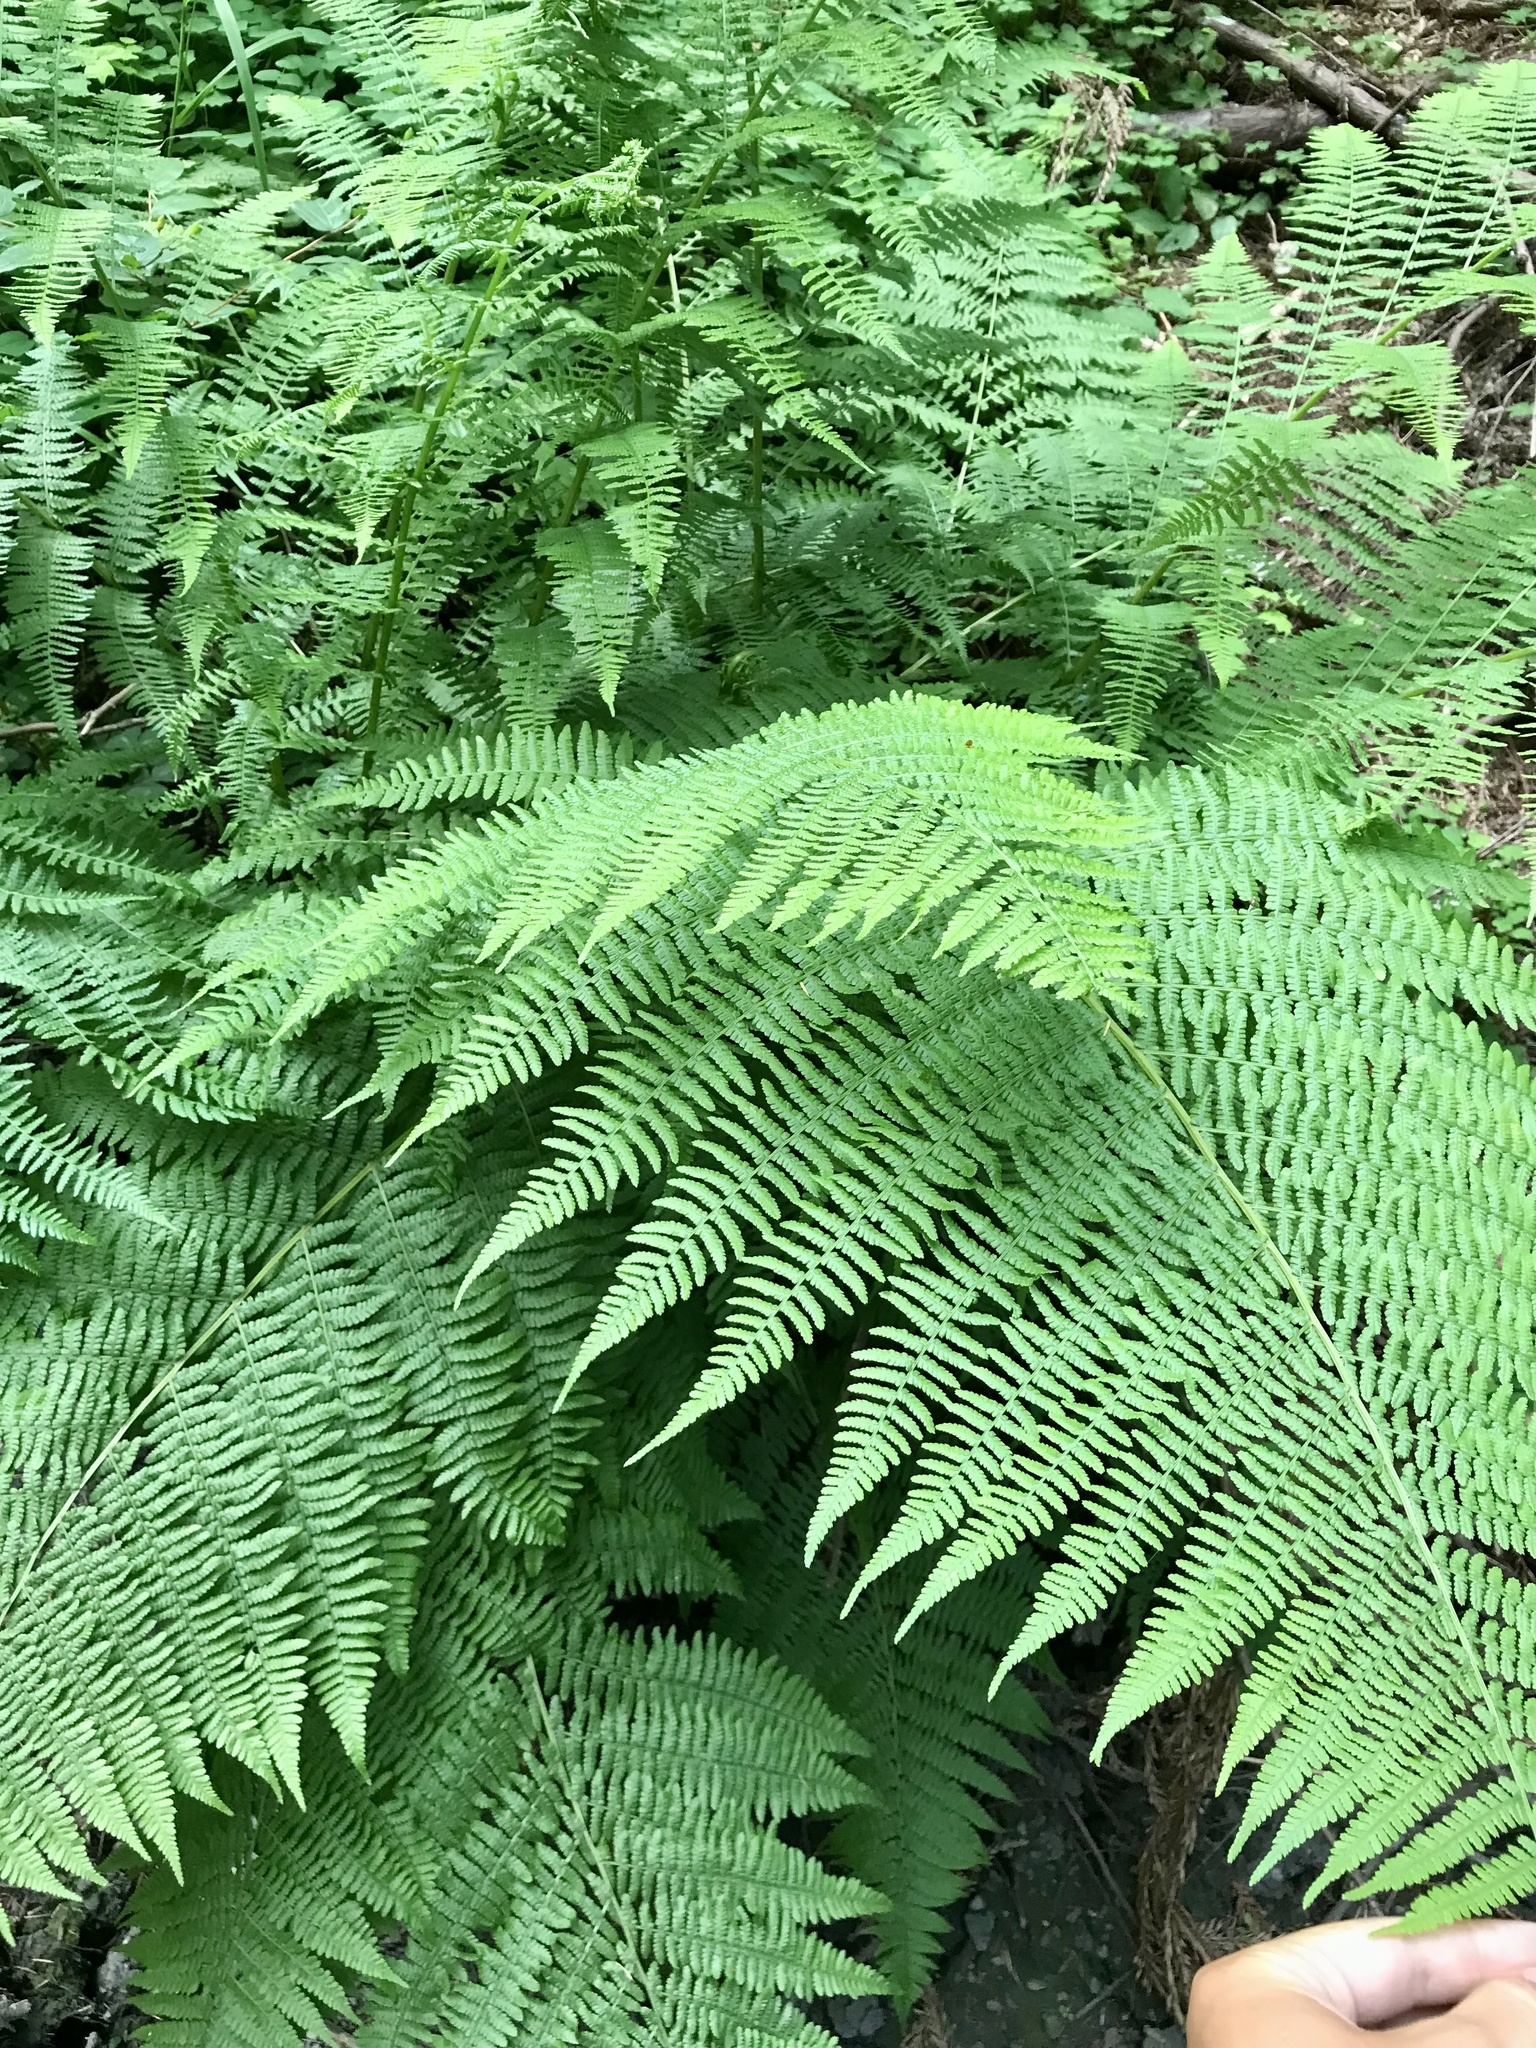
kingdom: Plantae
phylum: Tracheophyta
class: Polypodiopsida
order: Polypodiales
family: Athyriaceae
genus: Athyrium
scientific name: Athyrium filix-femina
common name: Lady fern
